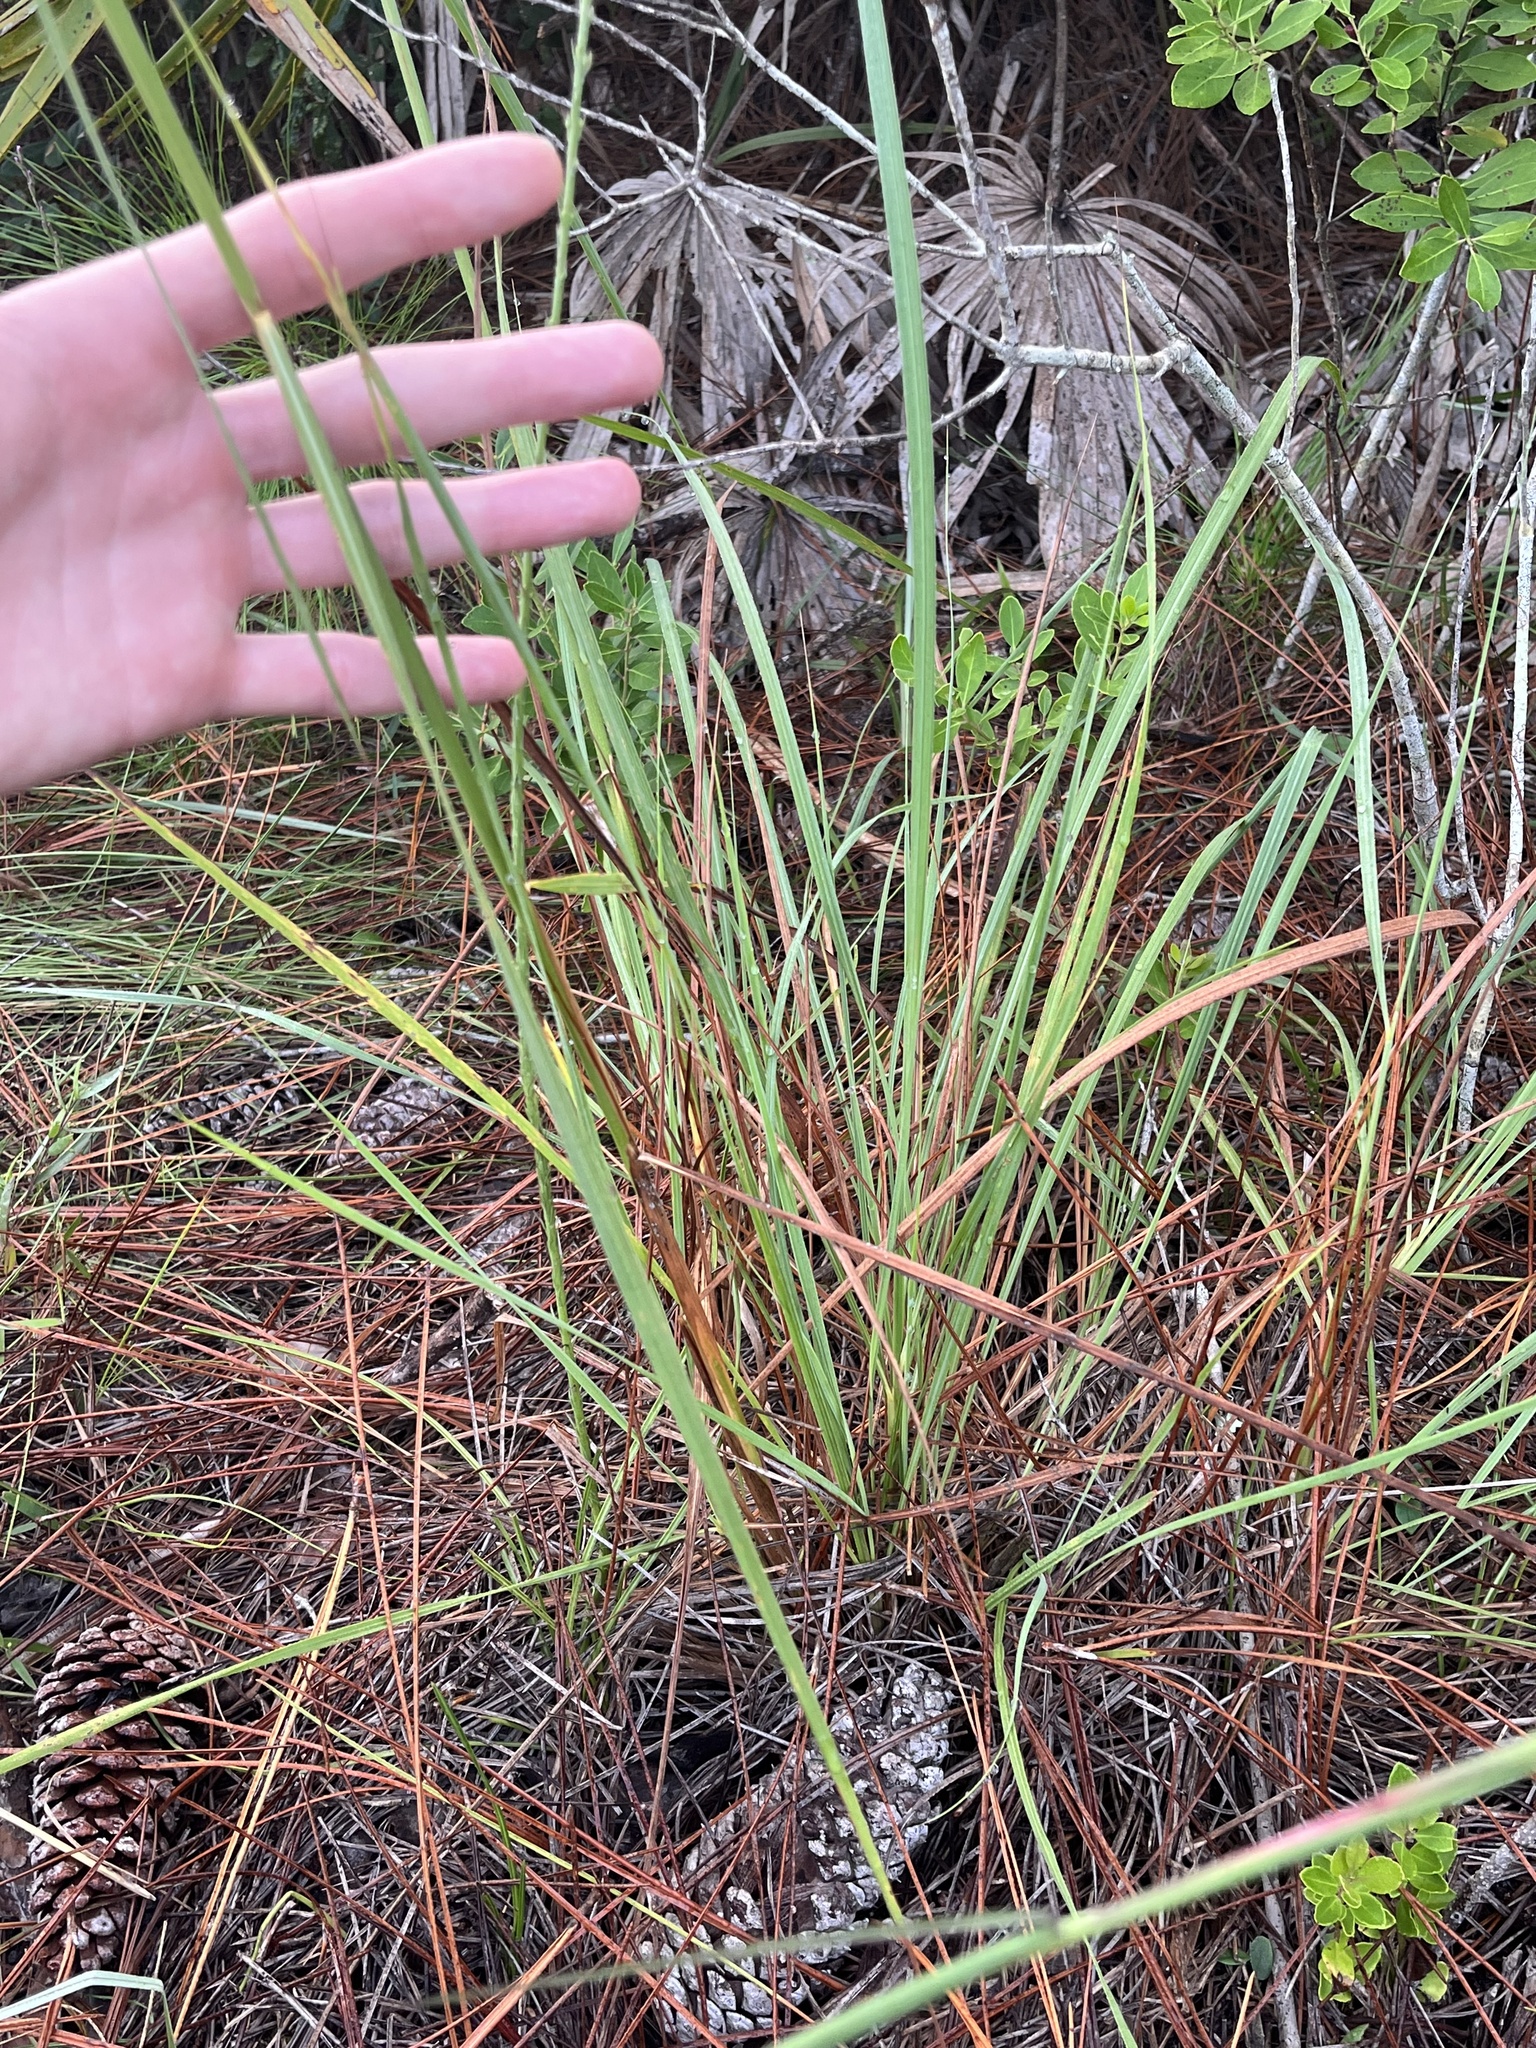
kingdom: Plantae
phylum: Tracheophyta
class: Liliopsida
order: Poales
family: Poaceae
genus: Sorghastrum
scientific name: Sorghastrum secundum
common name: Lopsided indian grass
